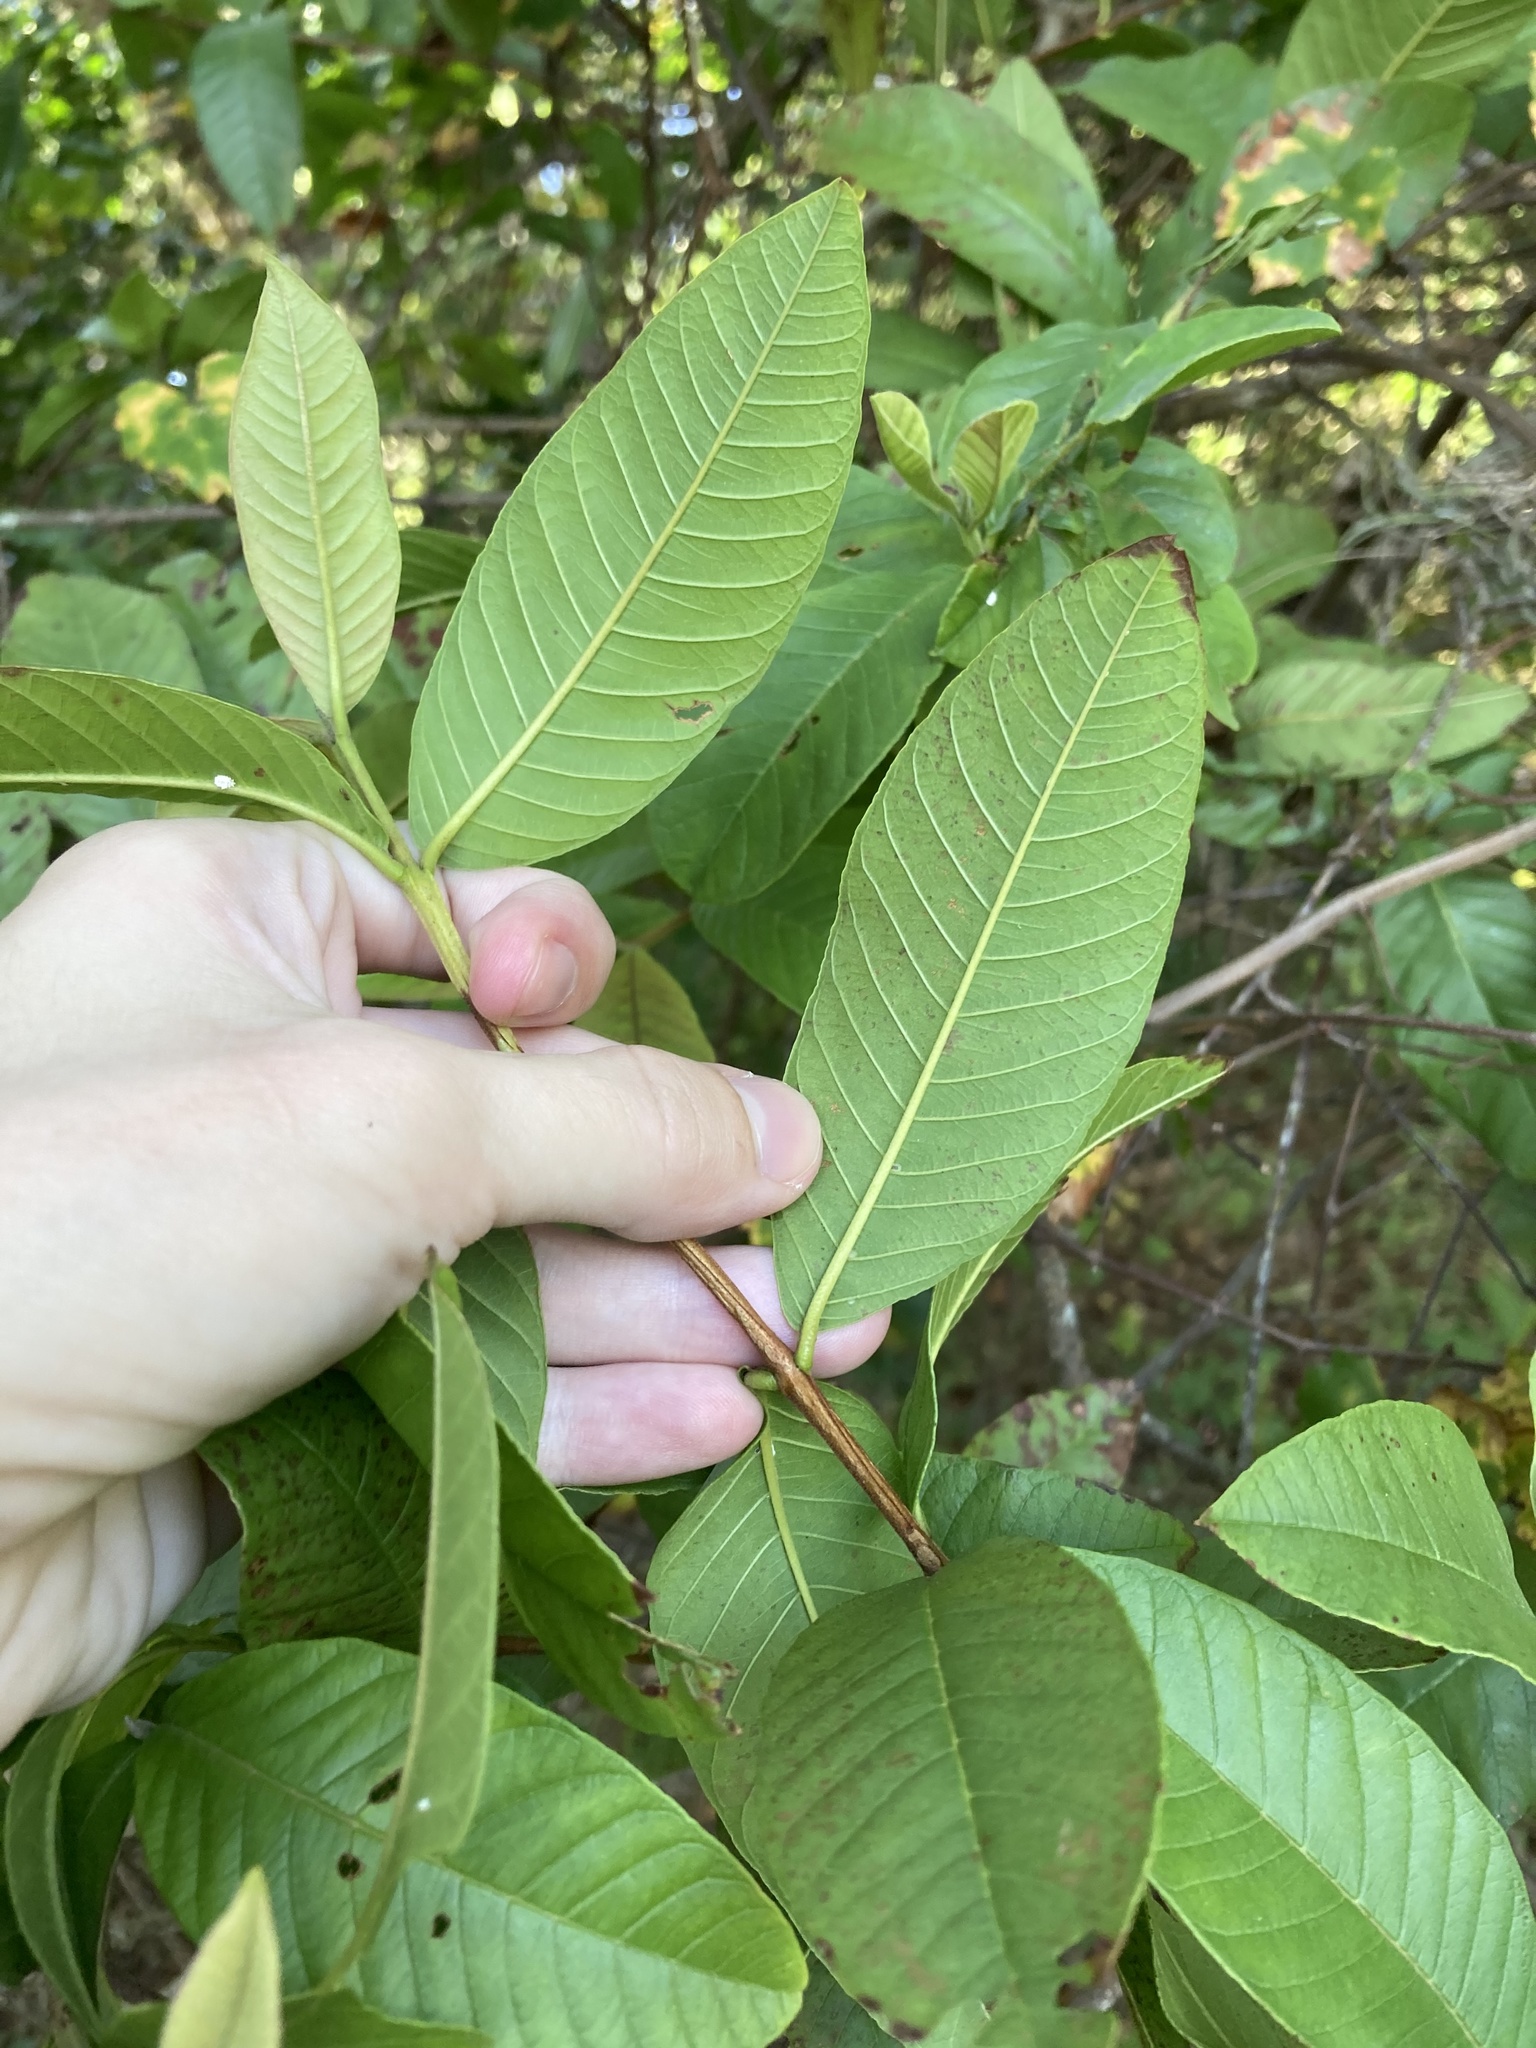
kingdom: Plantae
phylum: Tracheophyta
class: Magnoliopsida
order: Myrtales
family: Myrtaceae
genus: Psidium
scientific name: Psidium guajava
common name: Guava
